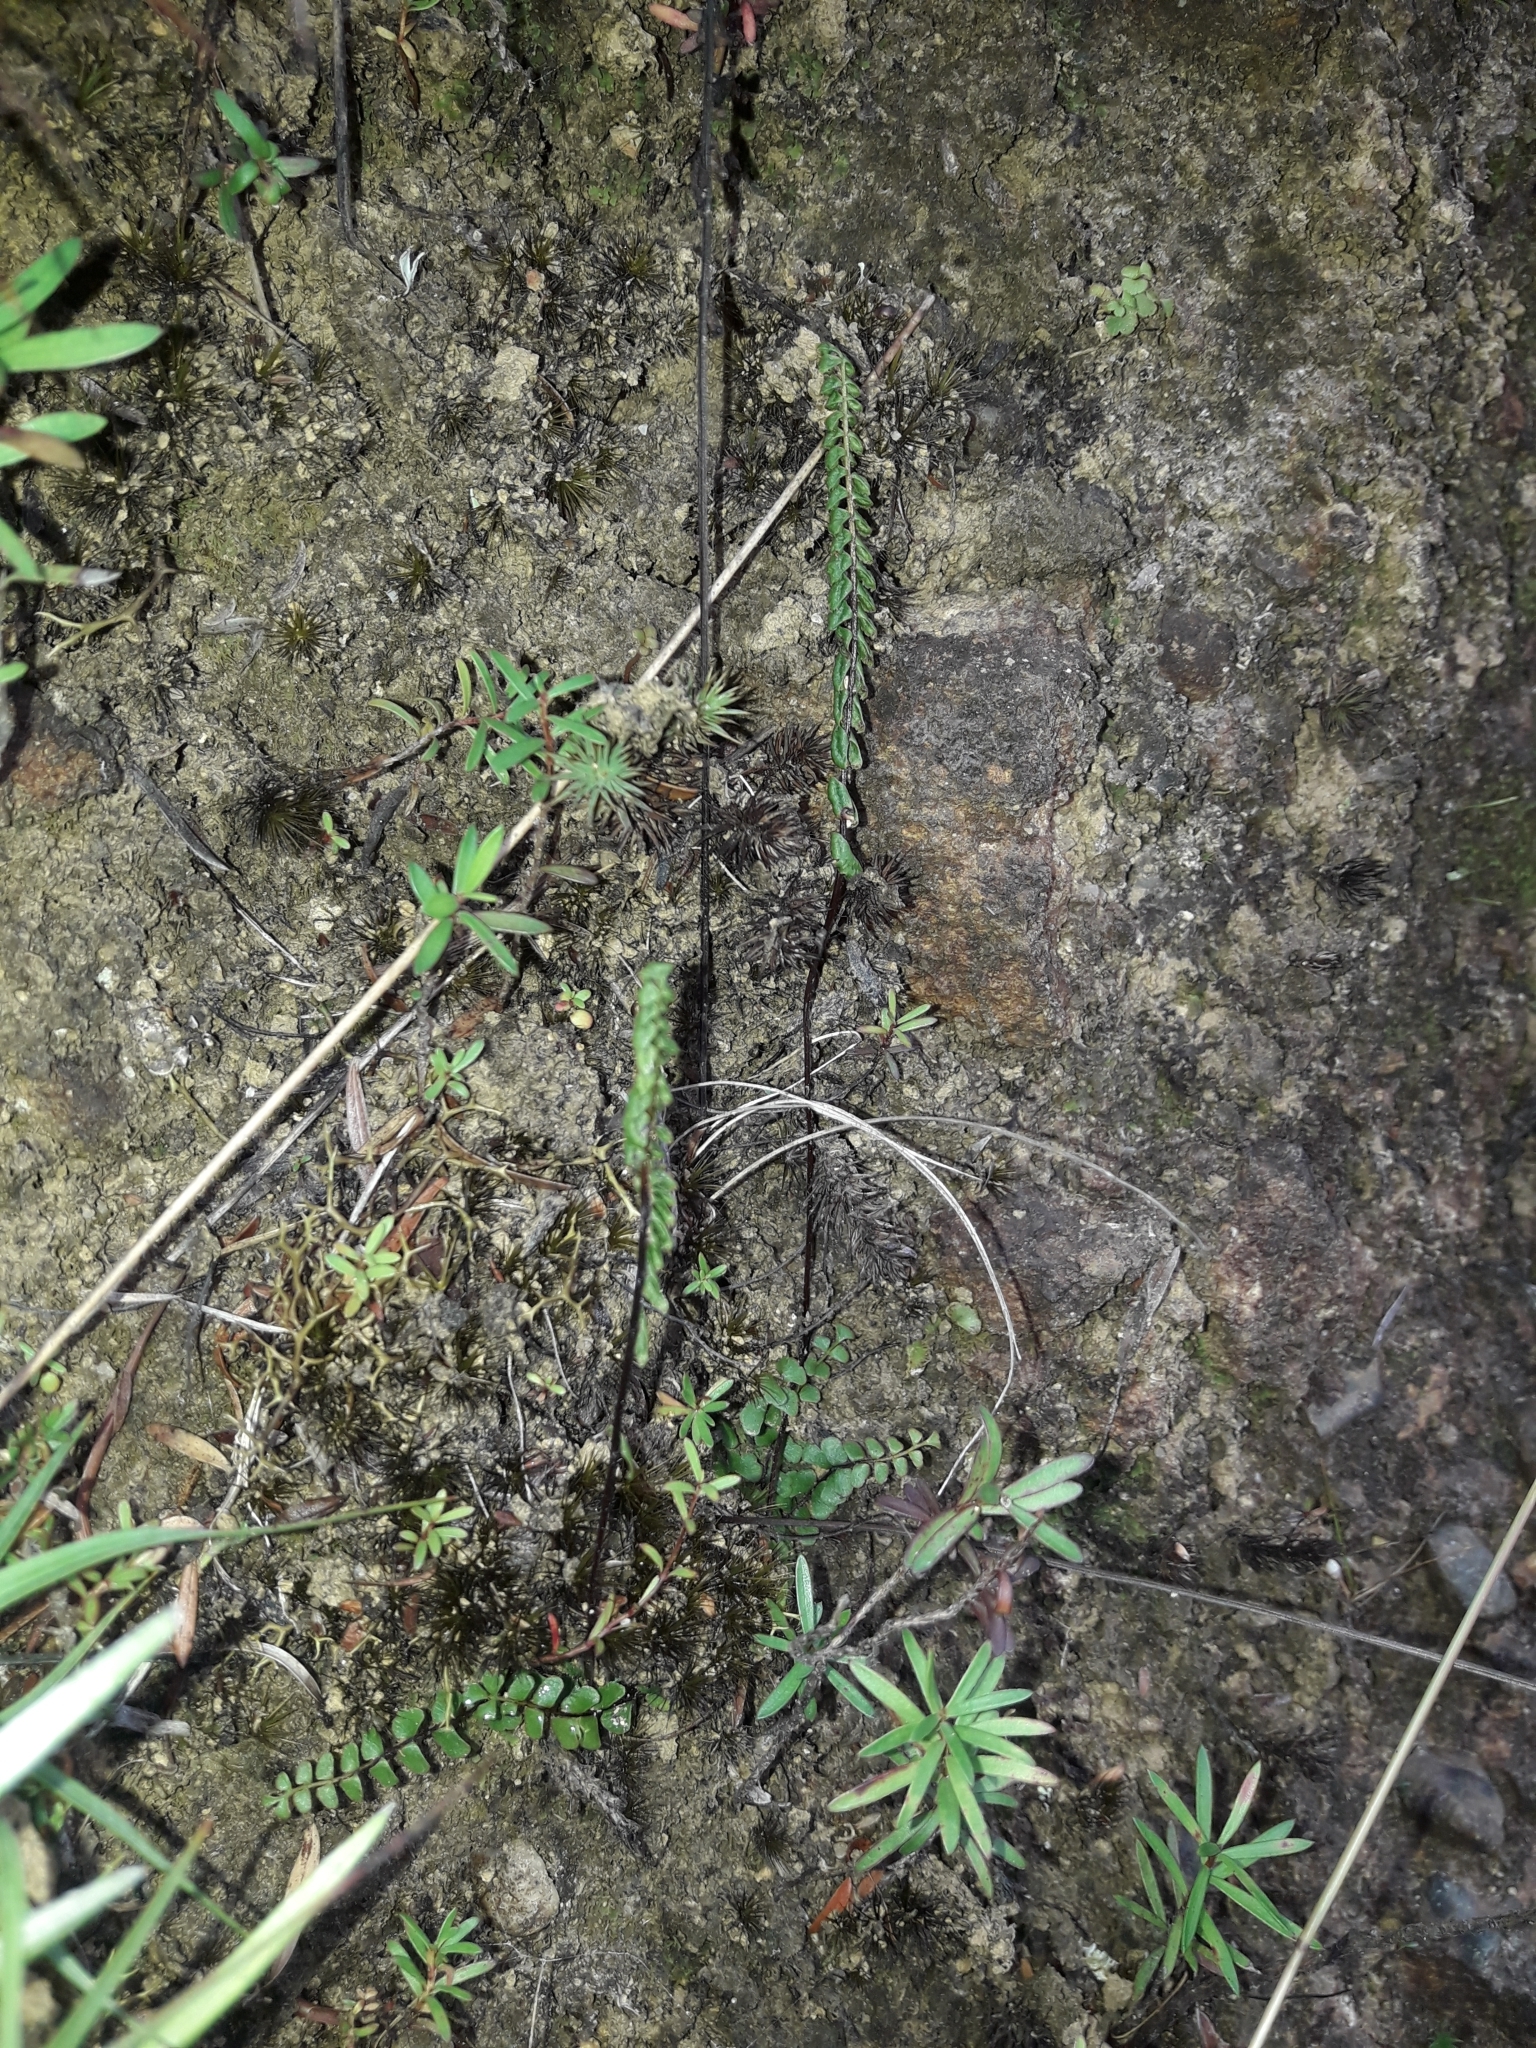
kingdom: Plantae
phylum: Tracheophyta
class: Polypodiopsida
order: Polypodiales
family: Lindsaeaceae
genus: Lindsaea
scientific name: Lindsaea linearis
